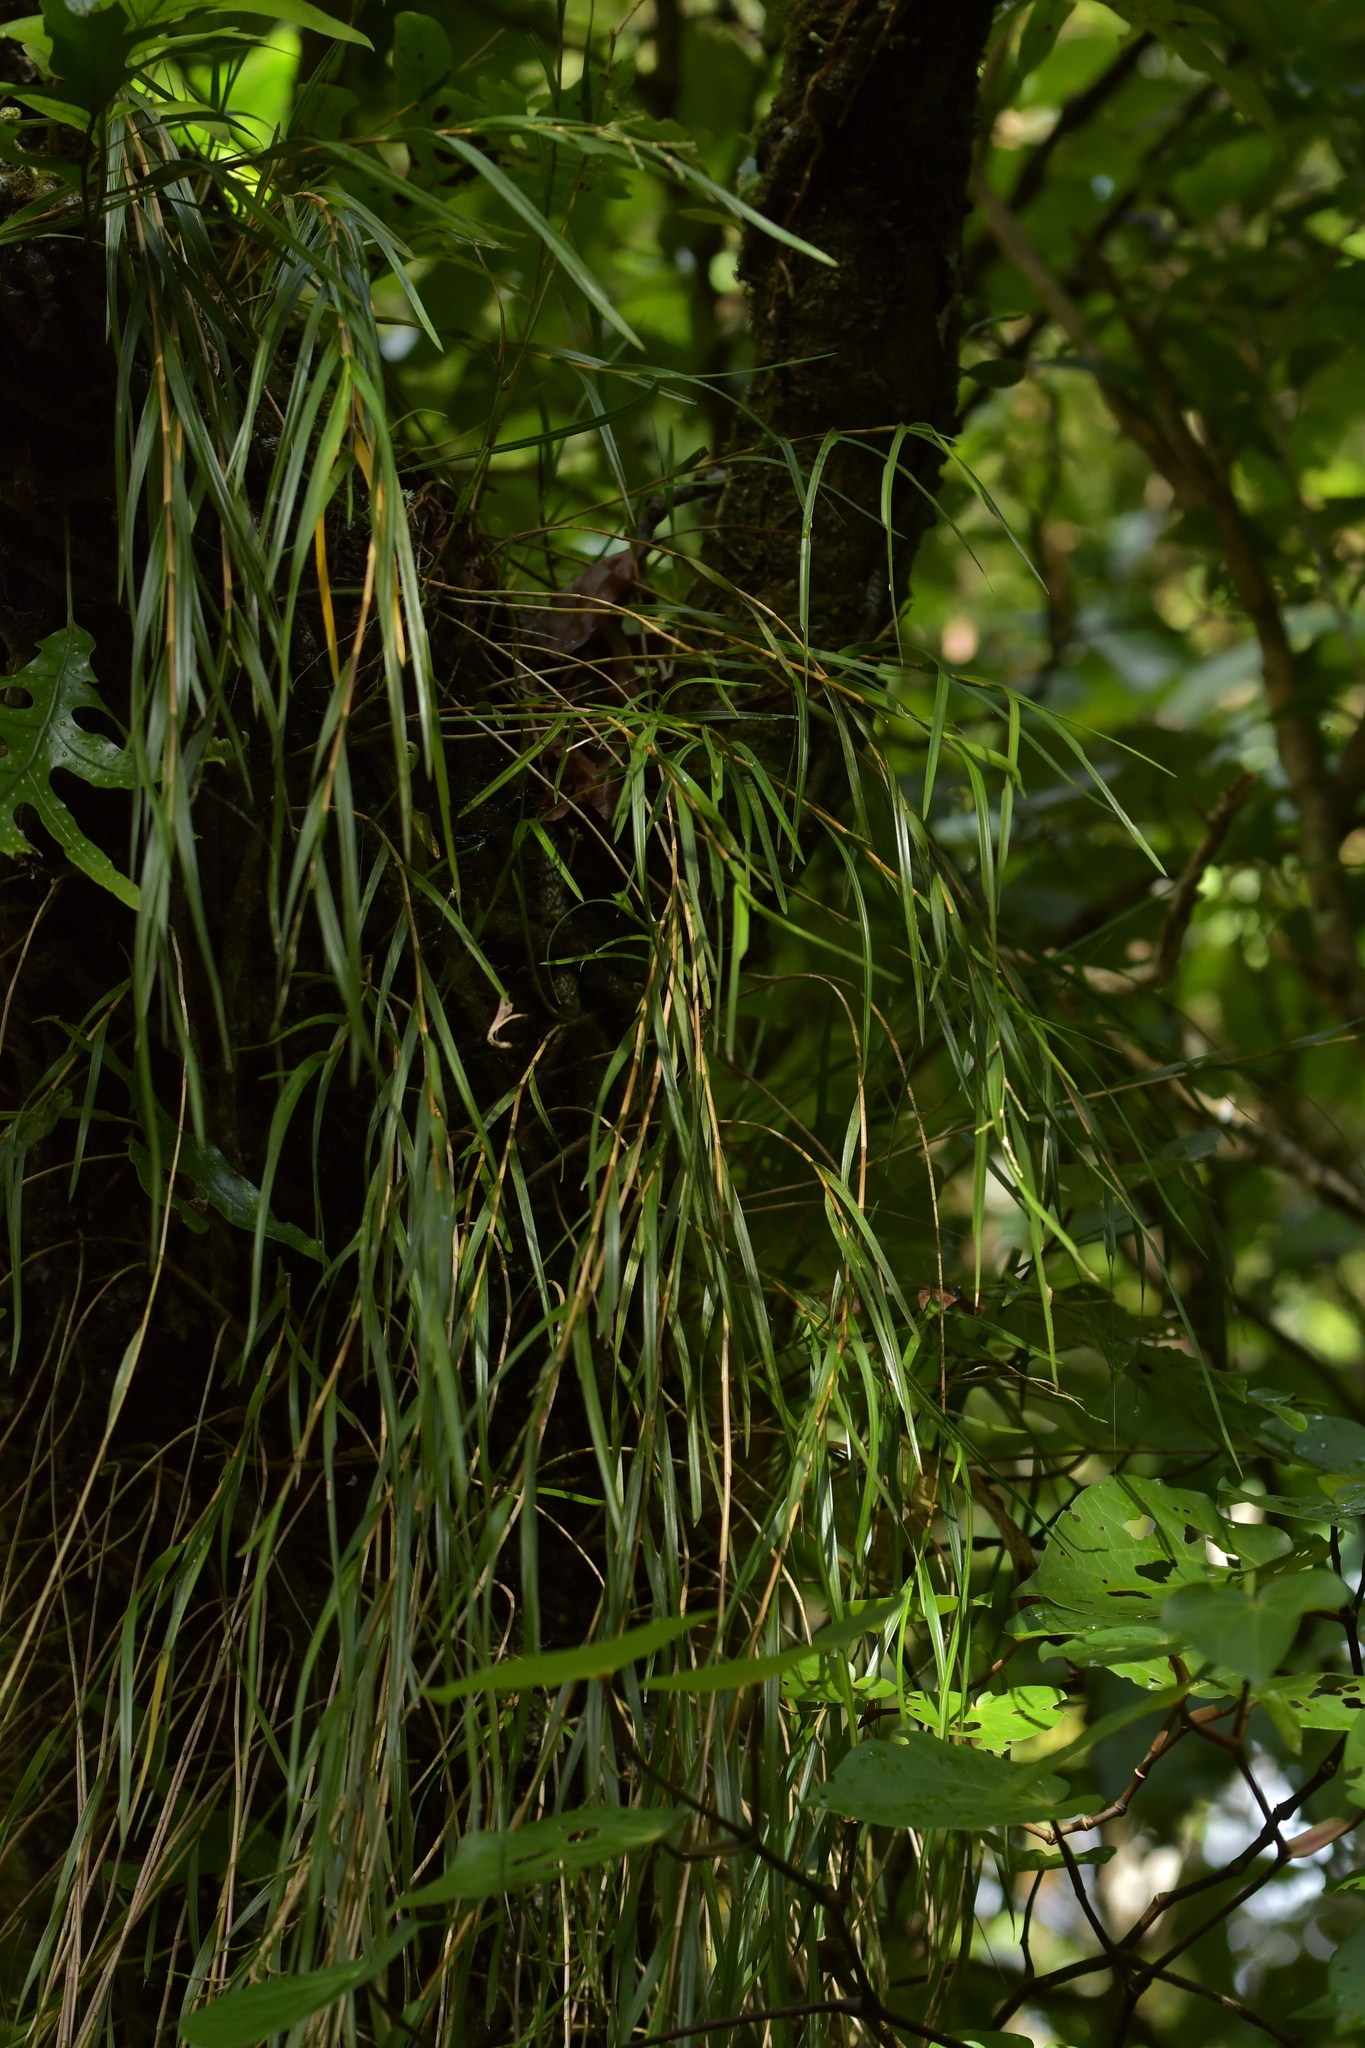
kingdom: Plantae
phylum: Tracheophyta
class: Liliopsida
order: Asparagales
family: Orchidaceae
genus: Earina
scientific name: Earina mucronata
